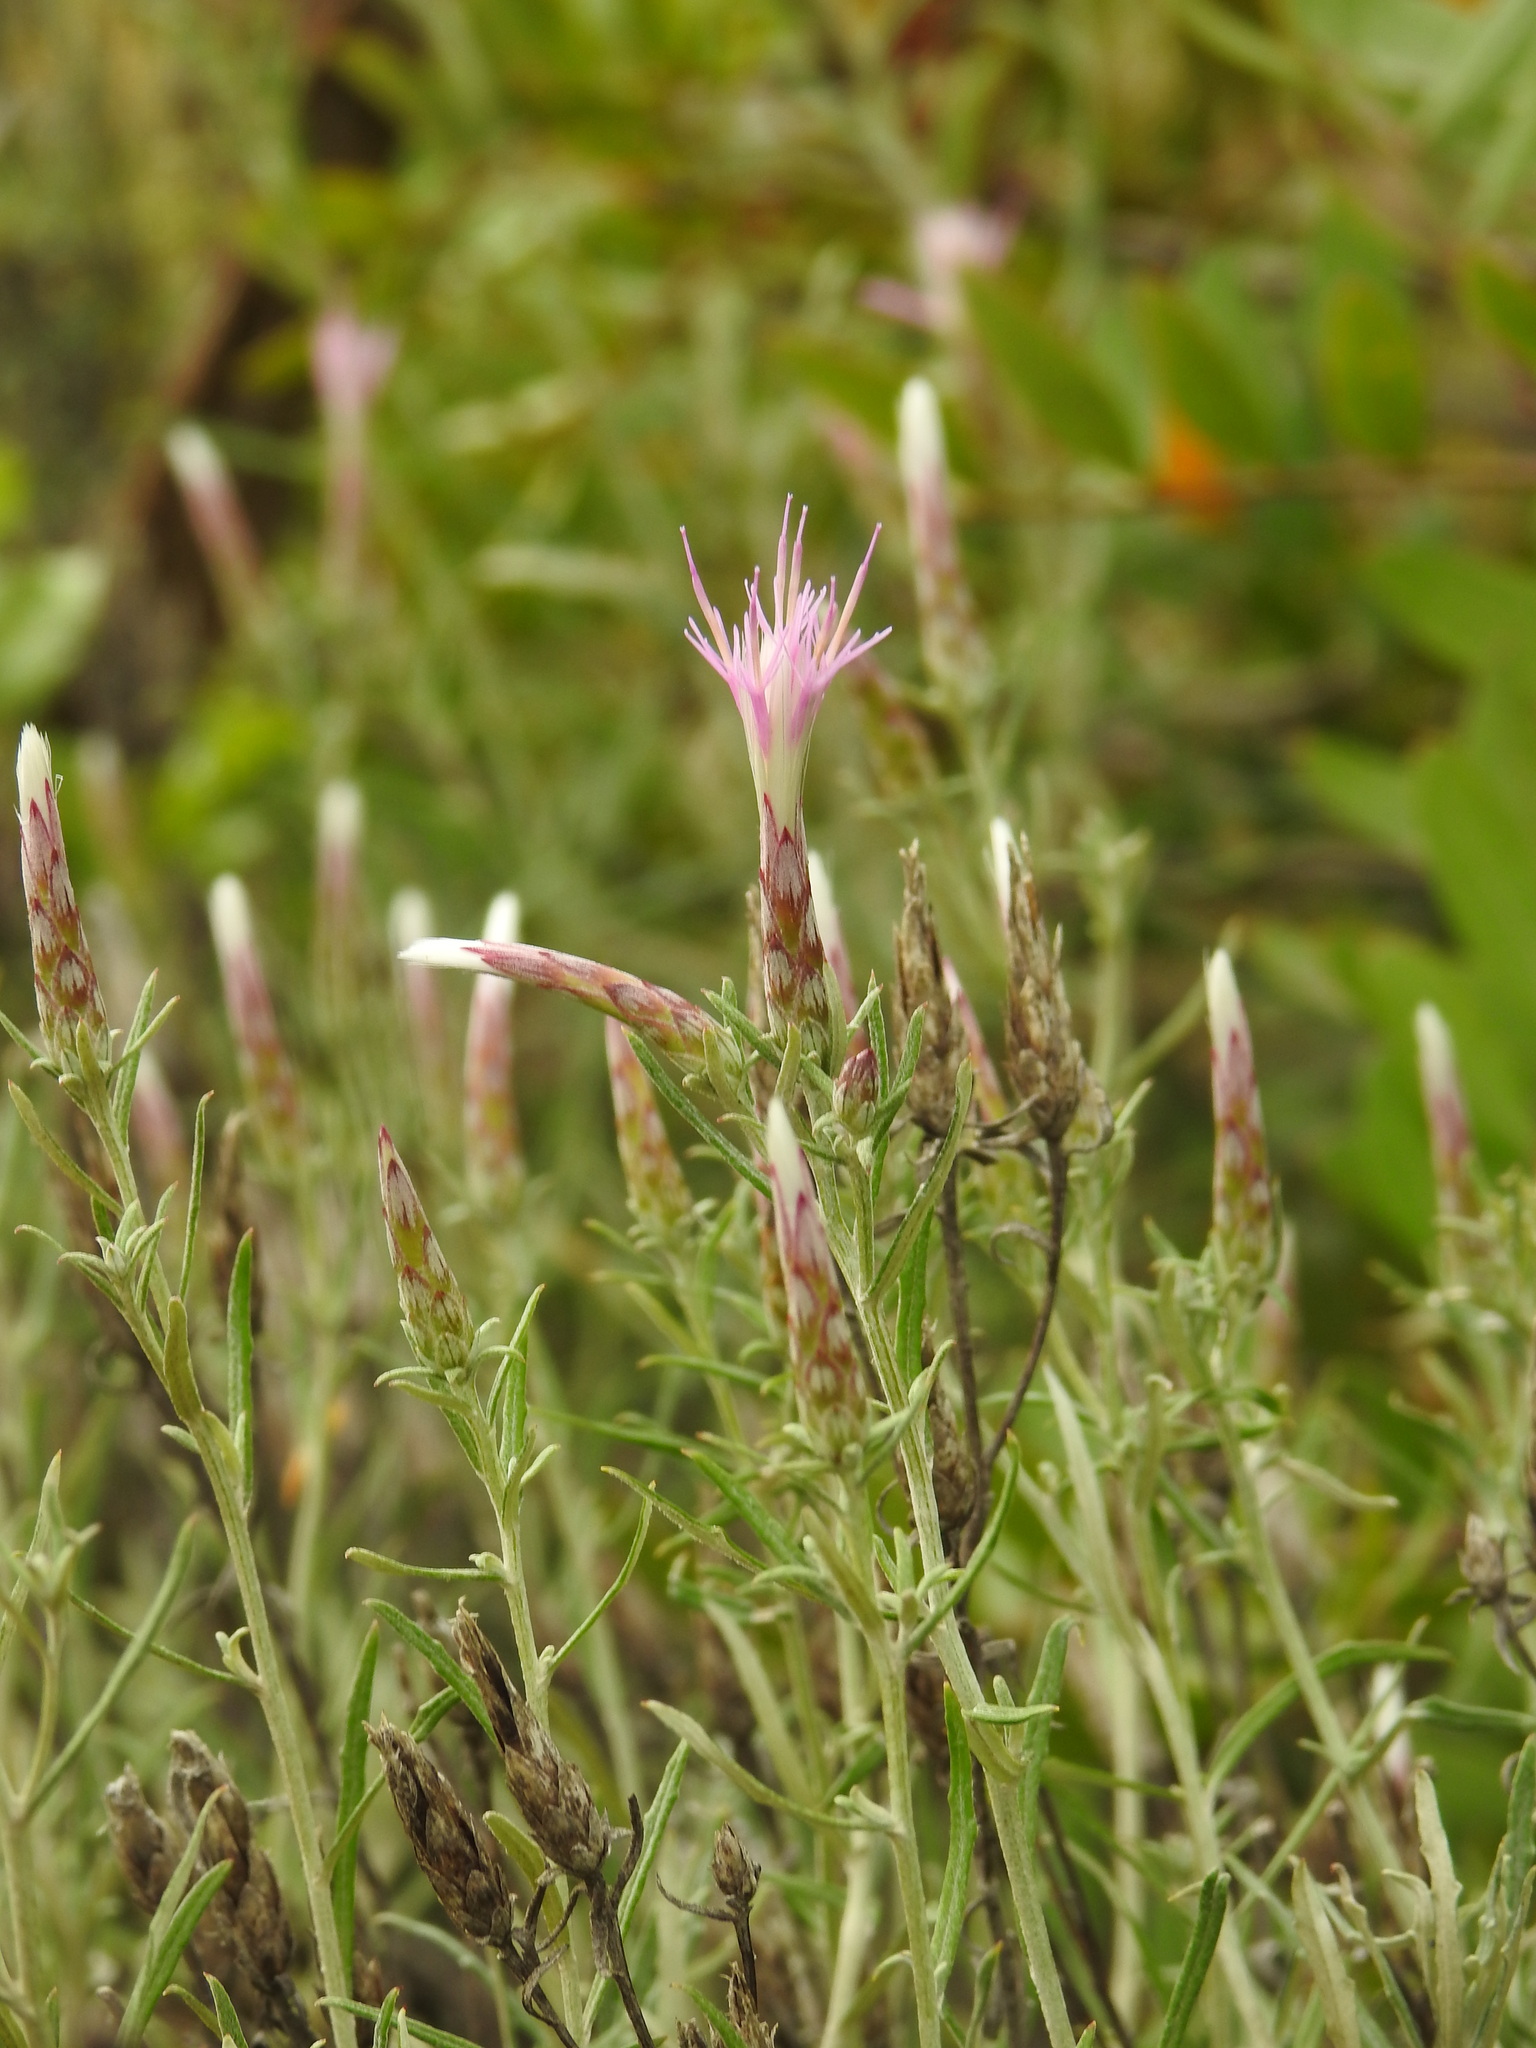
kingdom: Plantae
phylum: Tracheophyta
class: Magnoliopsida
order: Asterales
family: Asteraceae
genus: Staehelina
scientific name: Staehelina dubia
